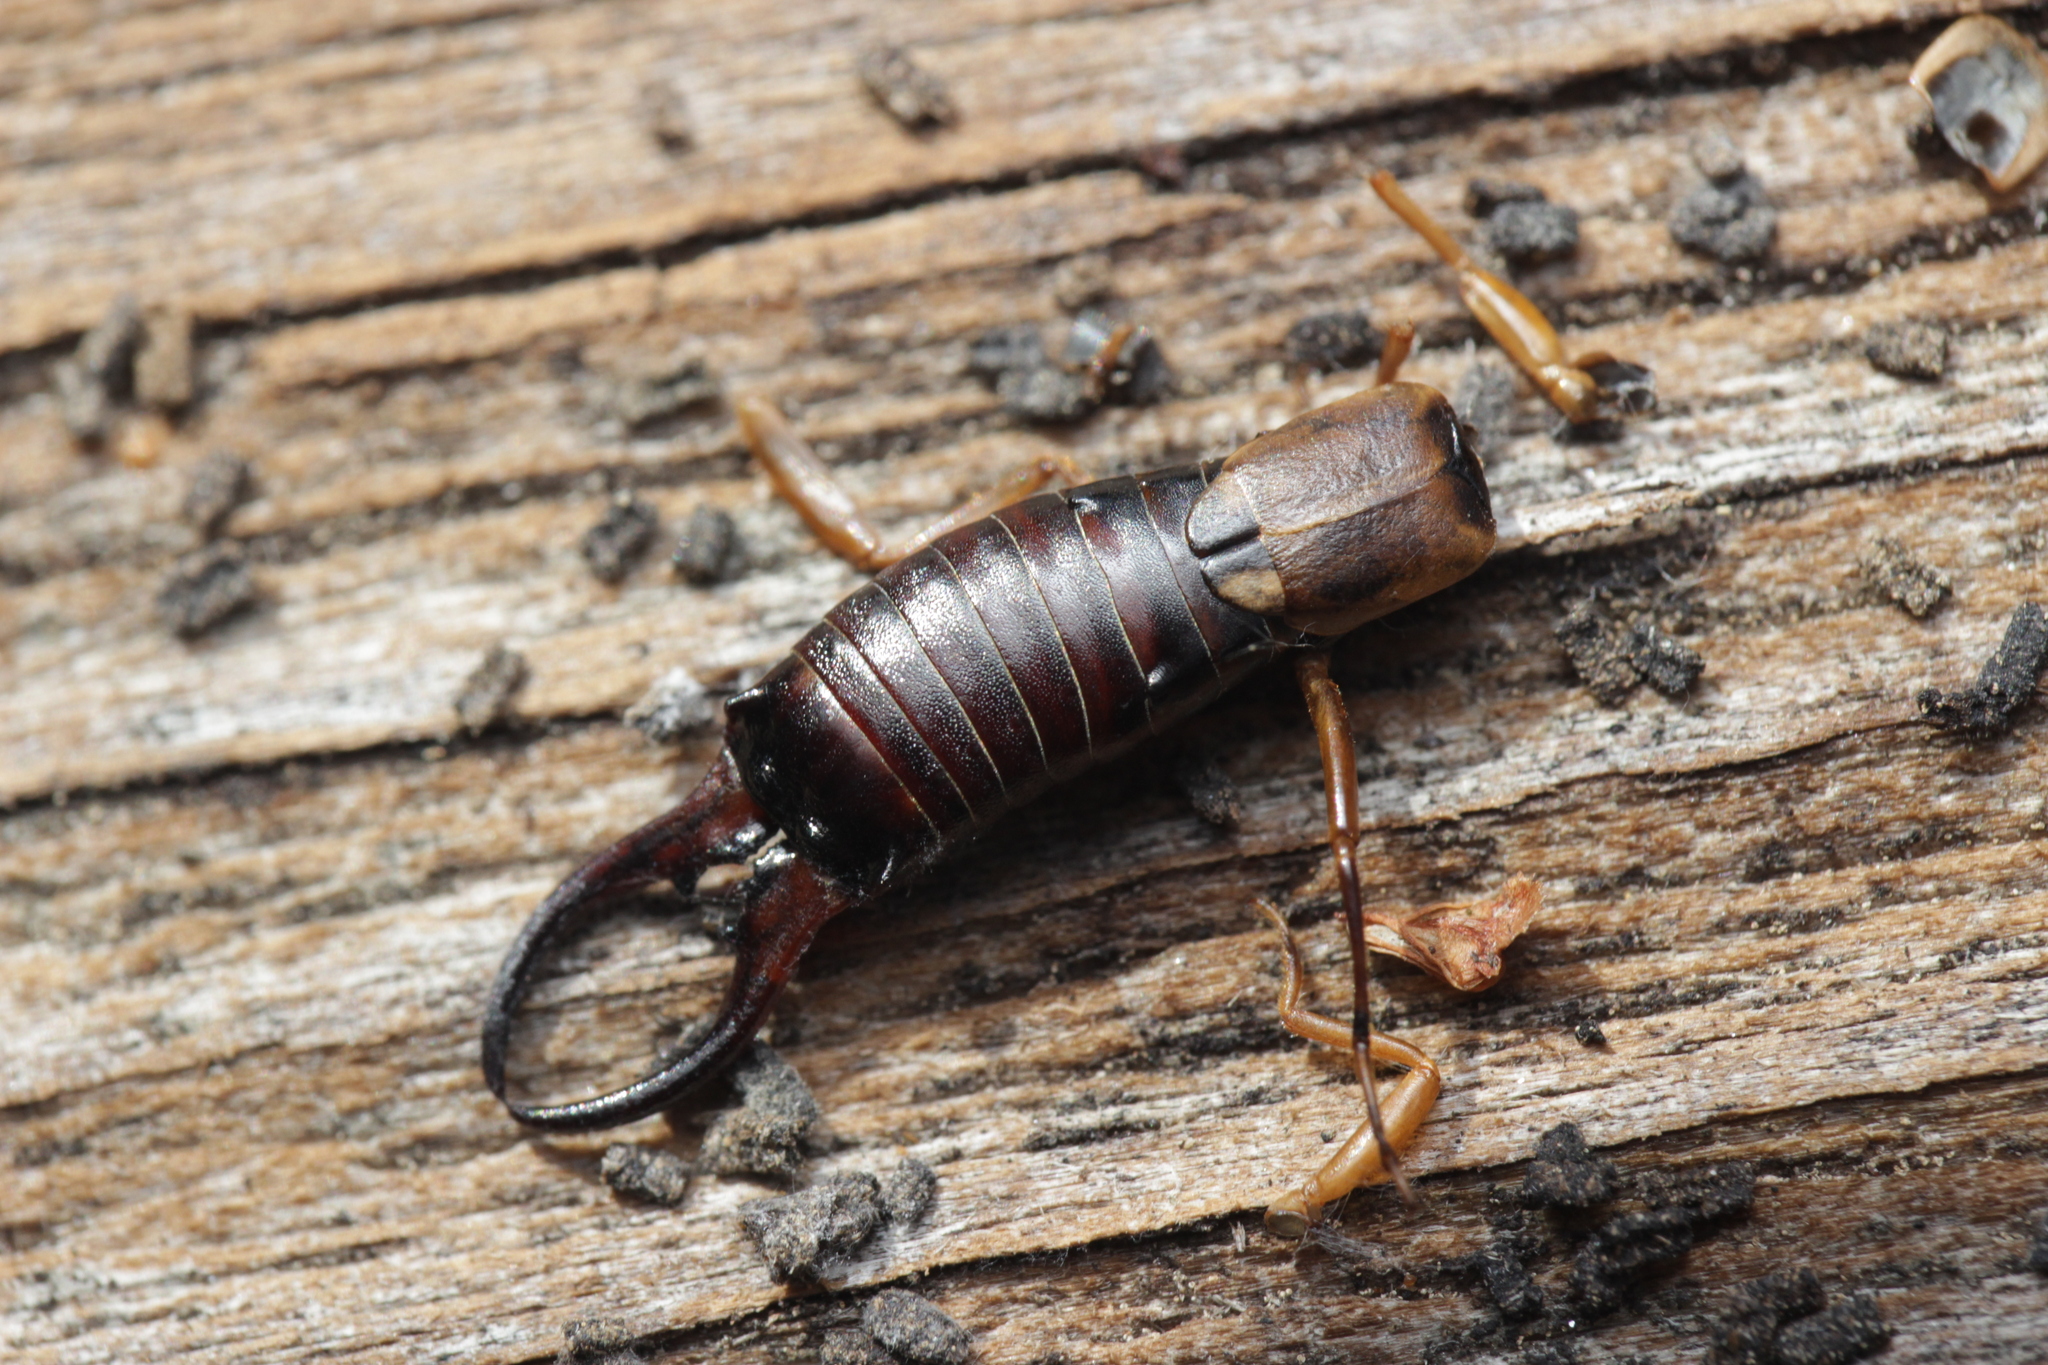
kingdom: Animalia
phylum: Arthropoda
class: Insecta
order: Dermaptera
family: Forficulidae
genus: Forficula
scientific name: Forficula
